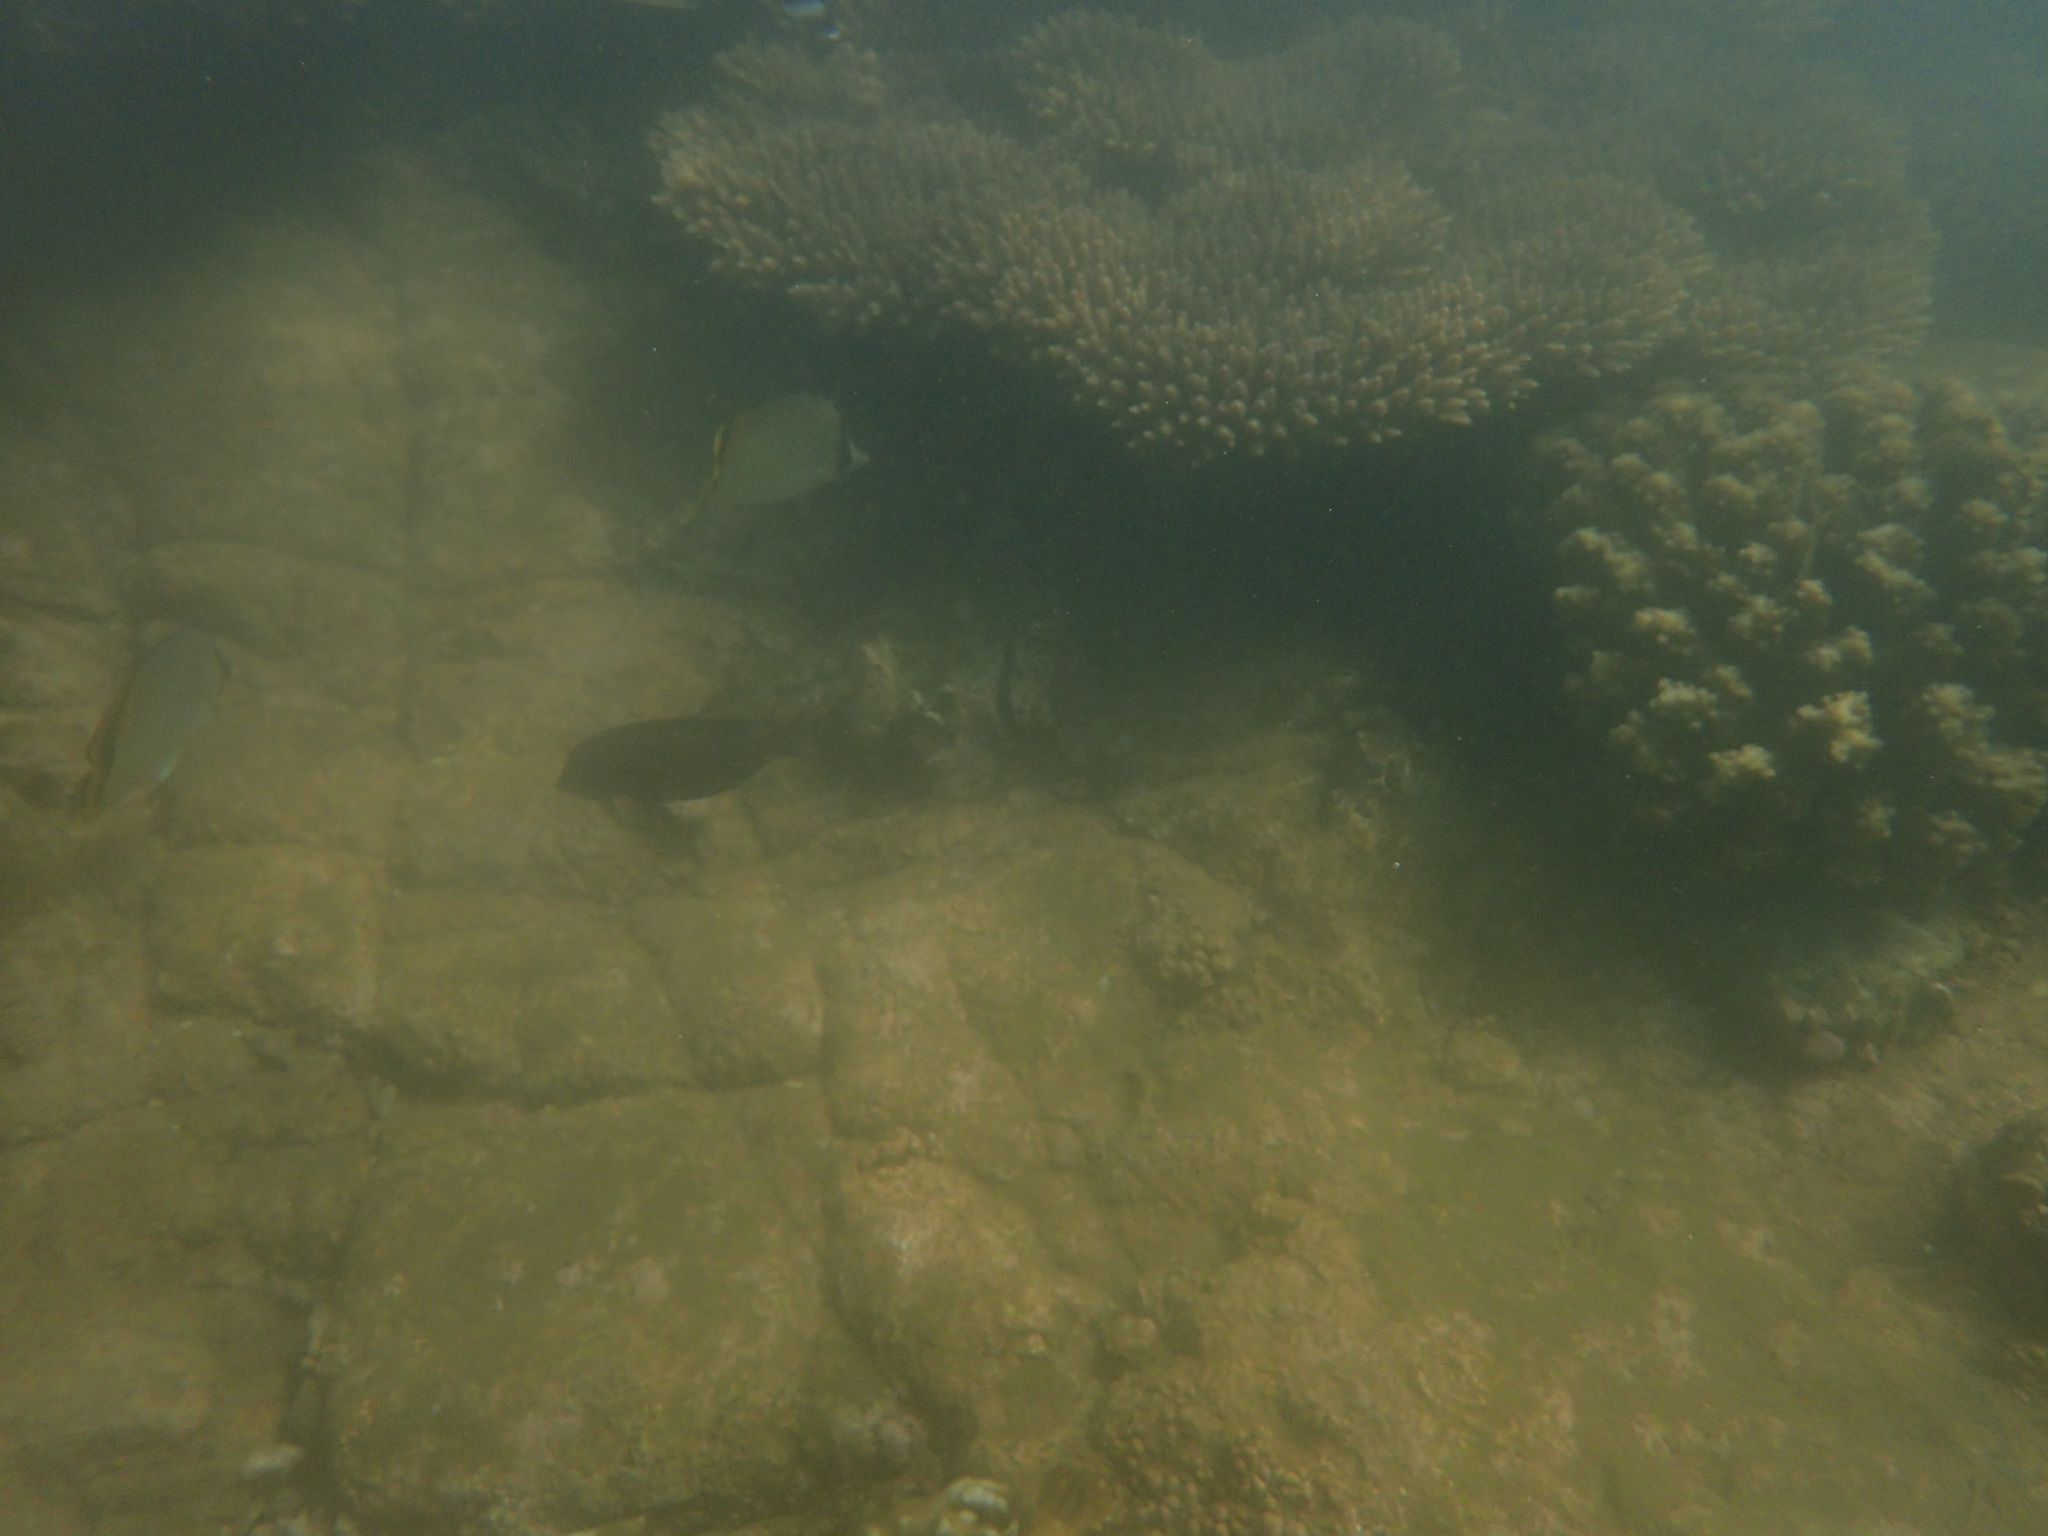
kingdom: Animalia
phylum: Chordata
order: Perciformes
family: Chaetodontidae
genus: Chaetodon
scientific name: Chaetodon vagabundus
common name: Vagabond butterflyfish
